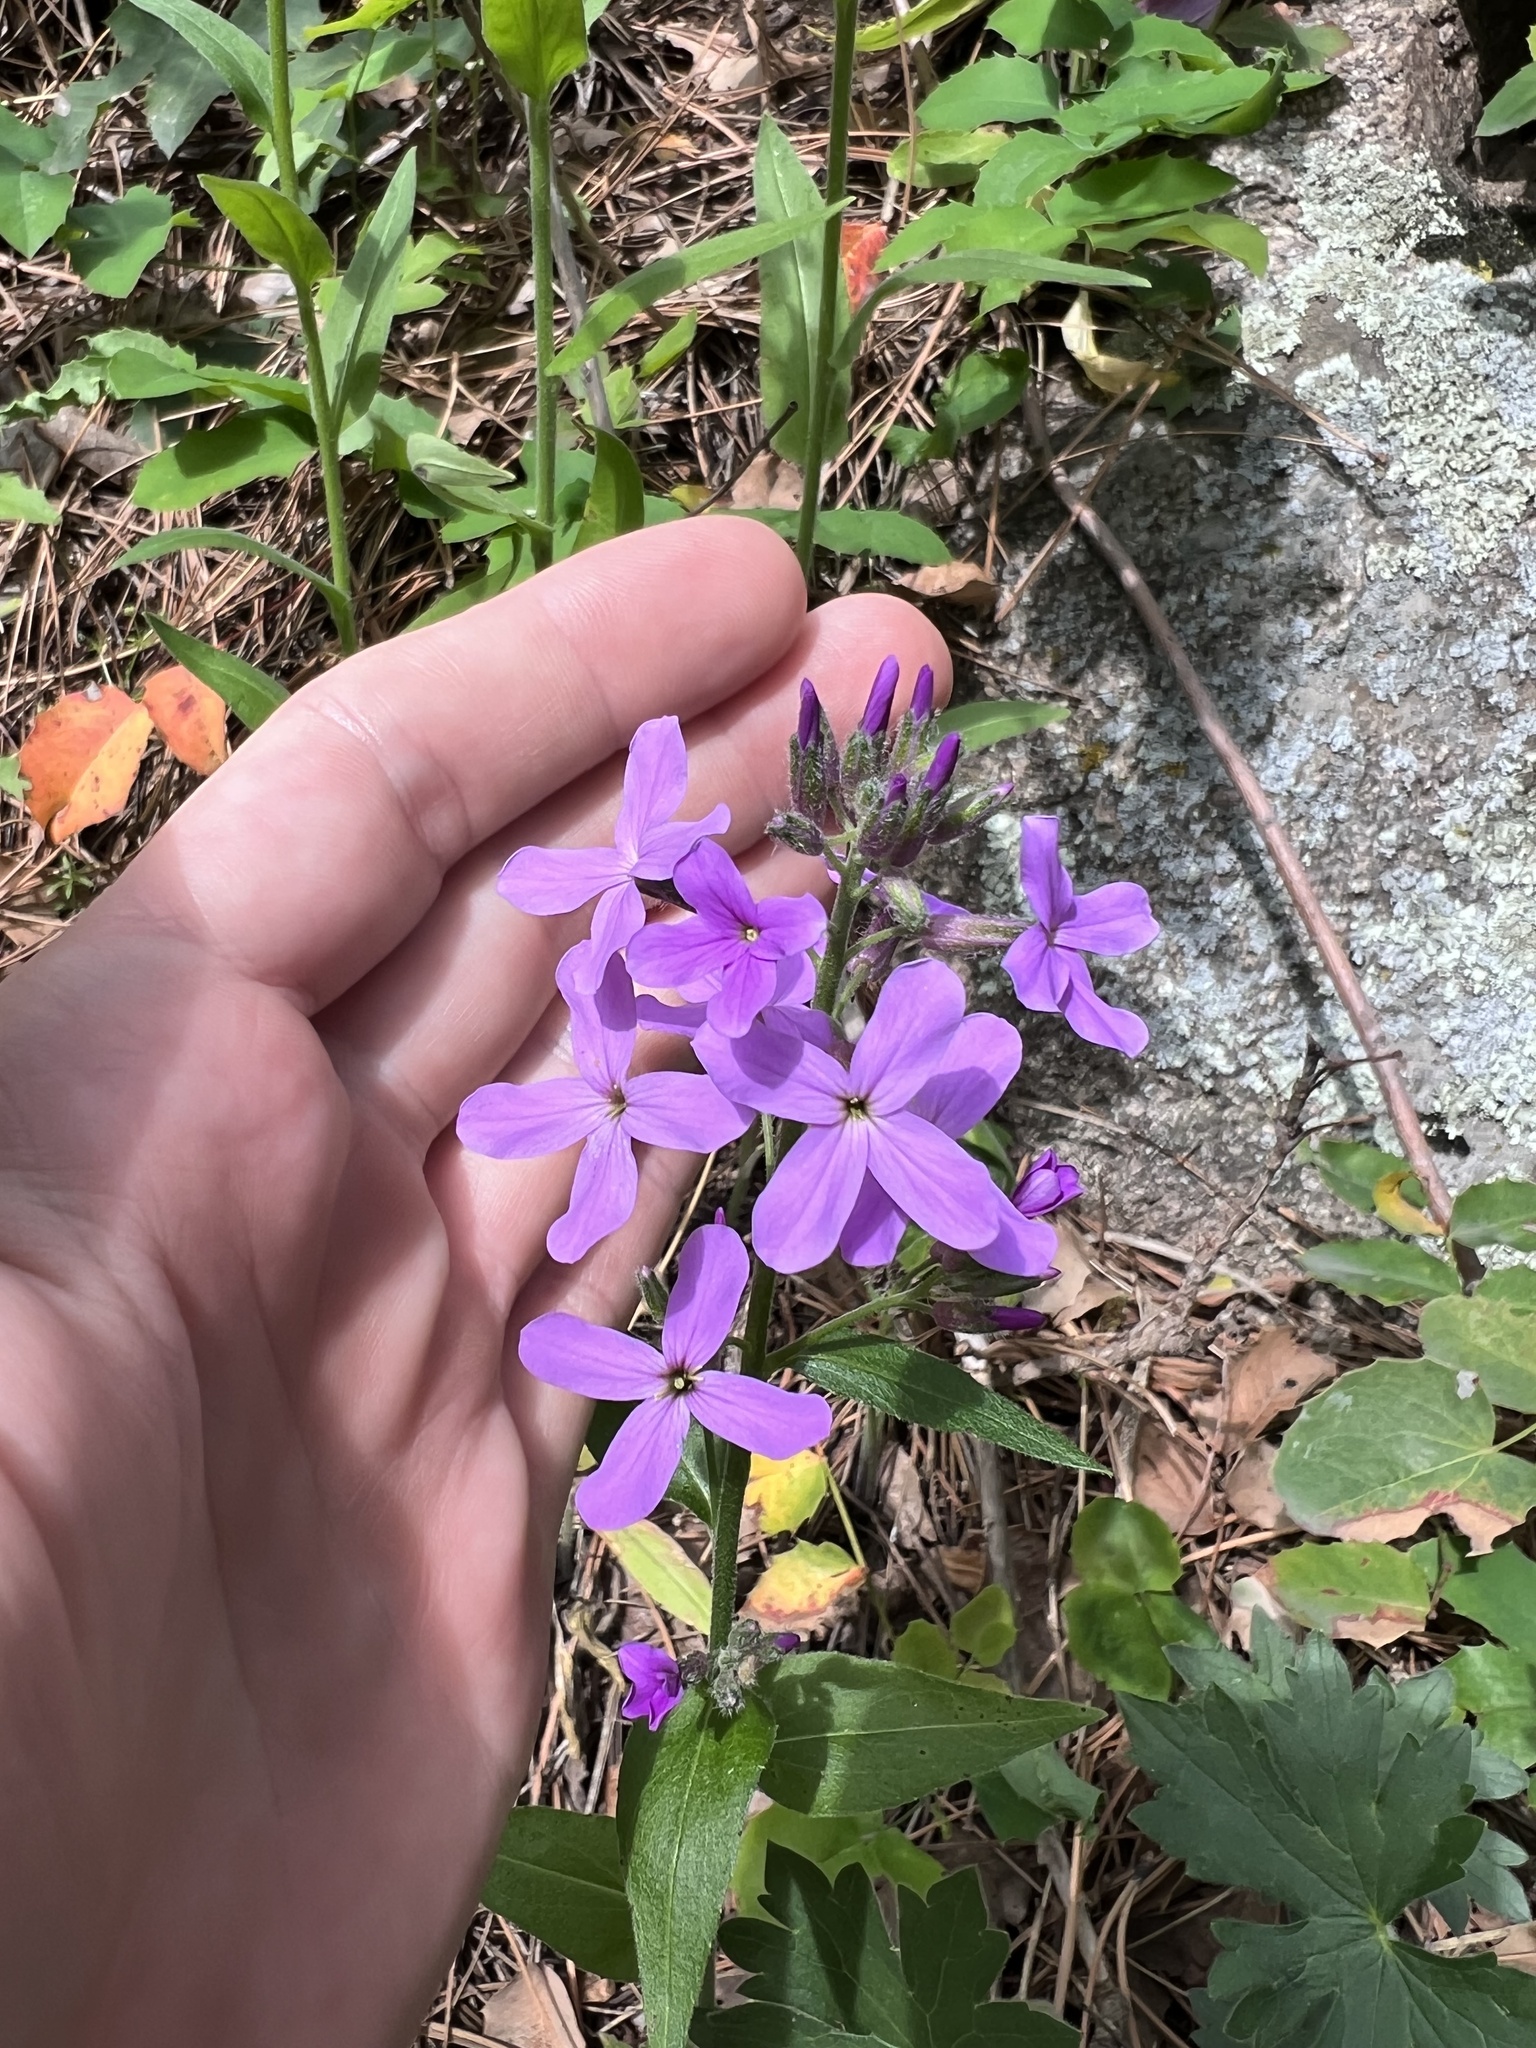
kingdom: Plantae
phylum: Tracheophyta
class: Magnoliopsida
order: Brassicales
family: Brassicaceae
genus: Hesperis
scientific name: Hesperis matronalis
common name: Dame's-violet
